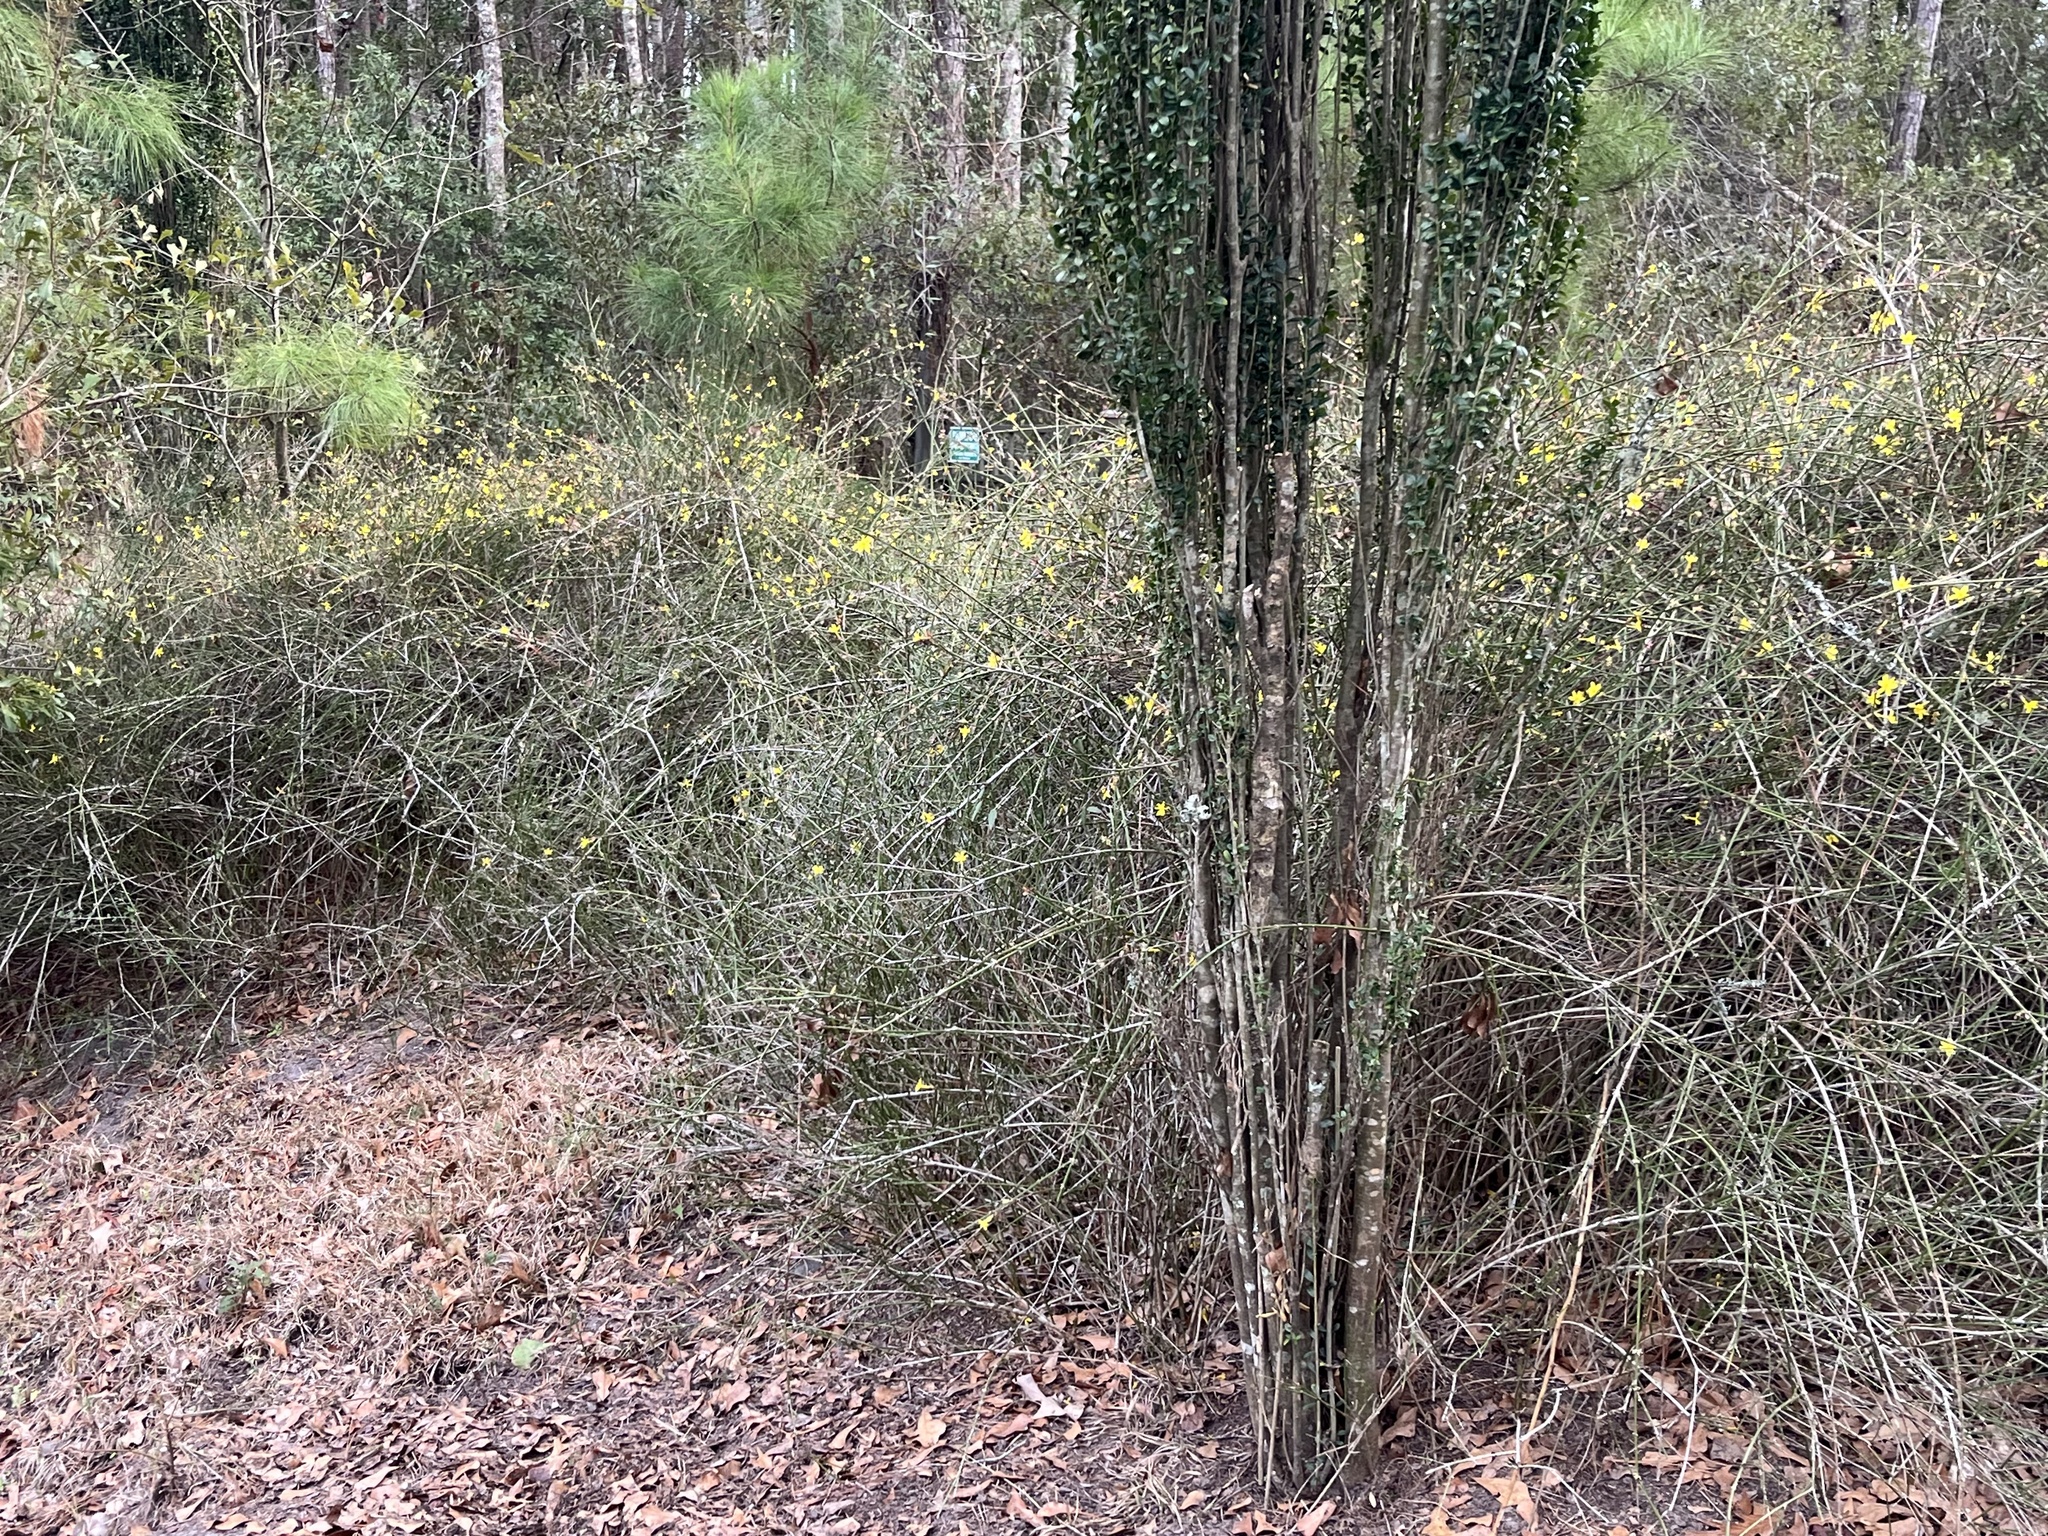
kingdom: Plantae
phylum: Tracheophyta
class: Magnoliopsida
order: Lamiales
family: Oleaceae
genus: Jasminum
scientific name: Jasminum nudiflorum
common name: Winter jasmine
